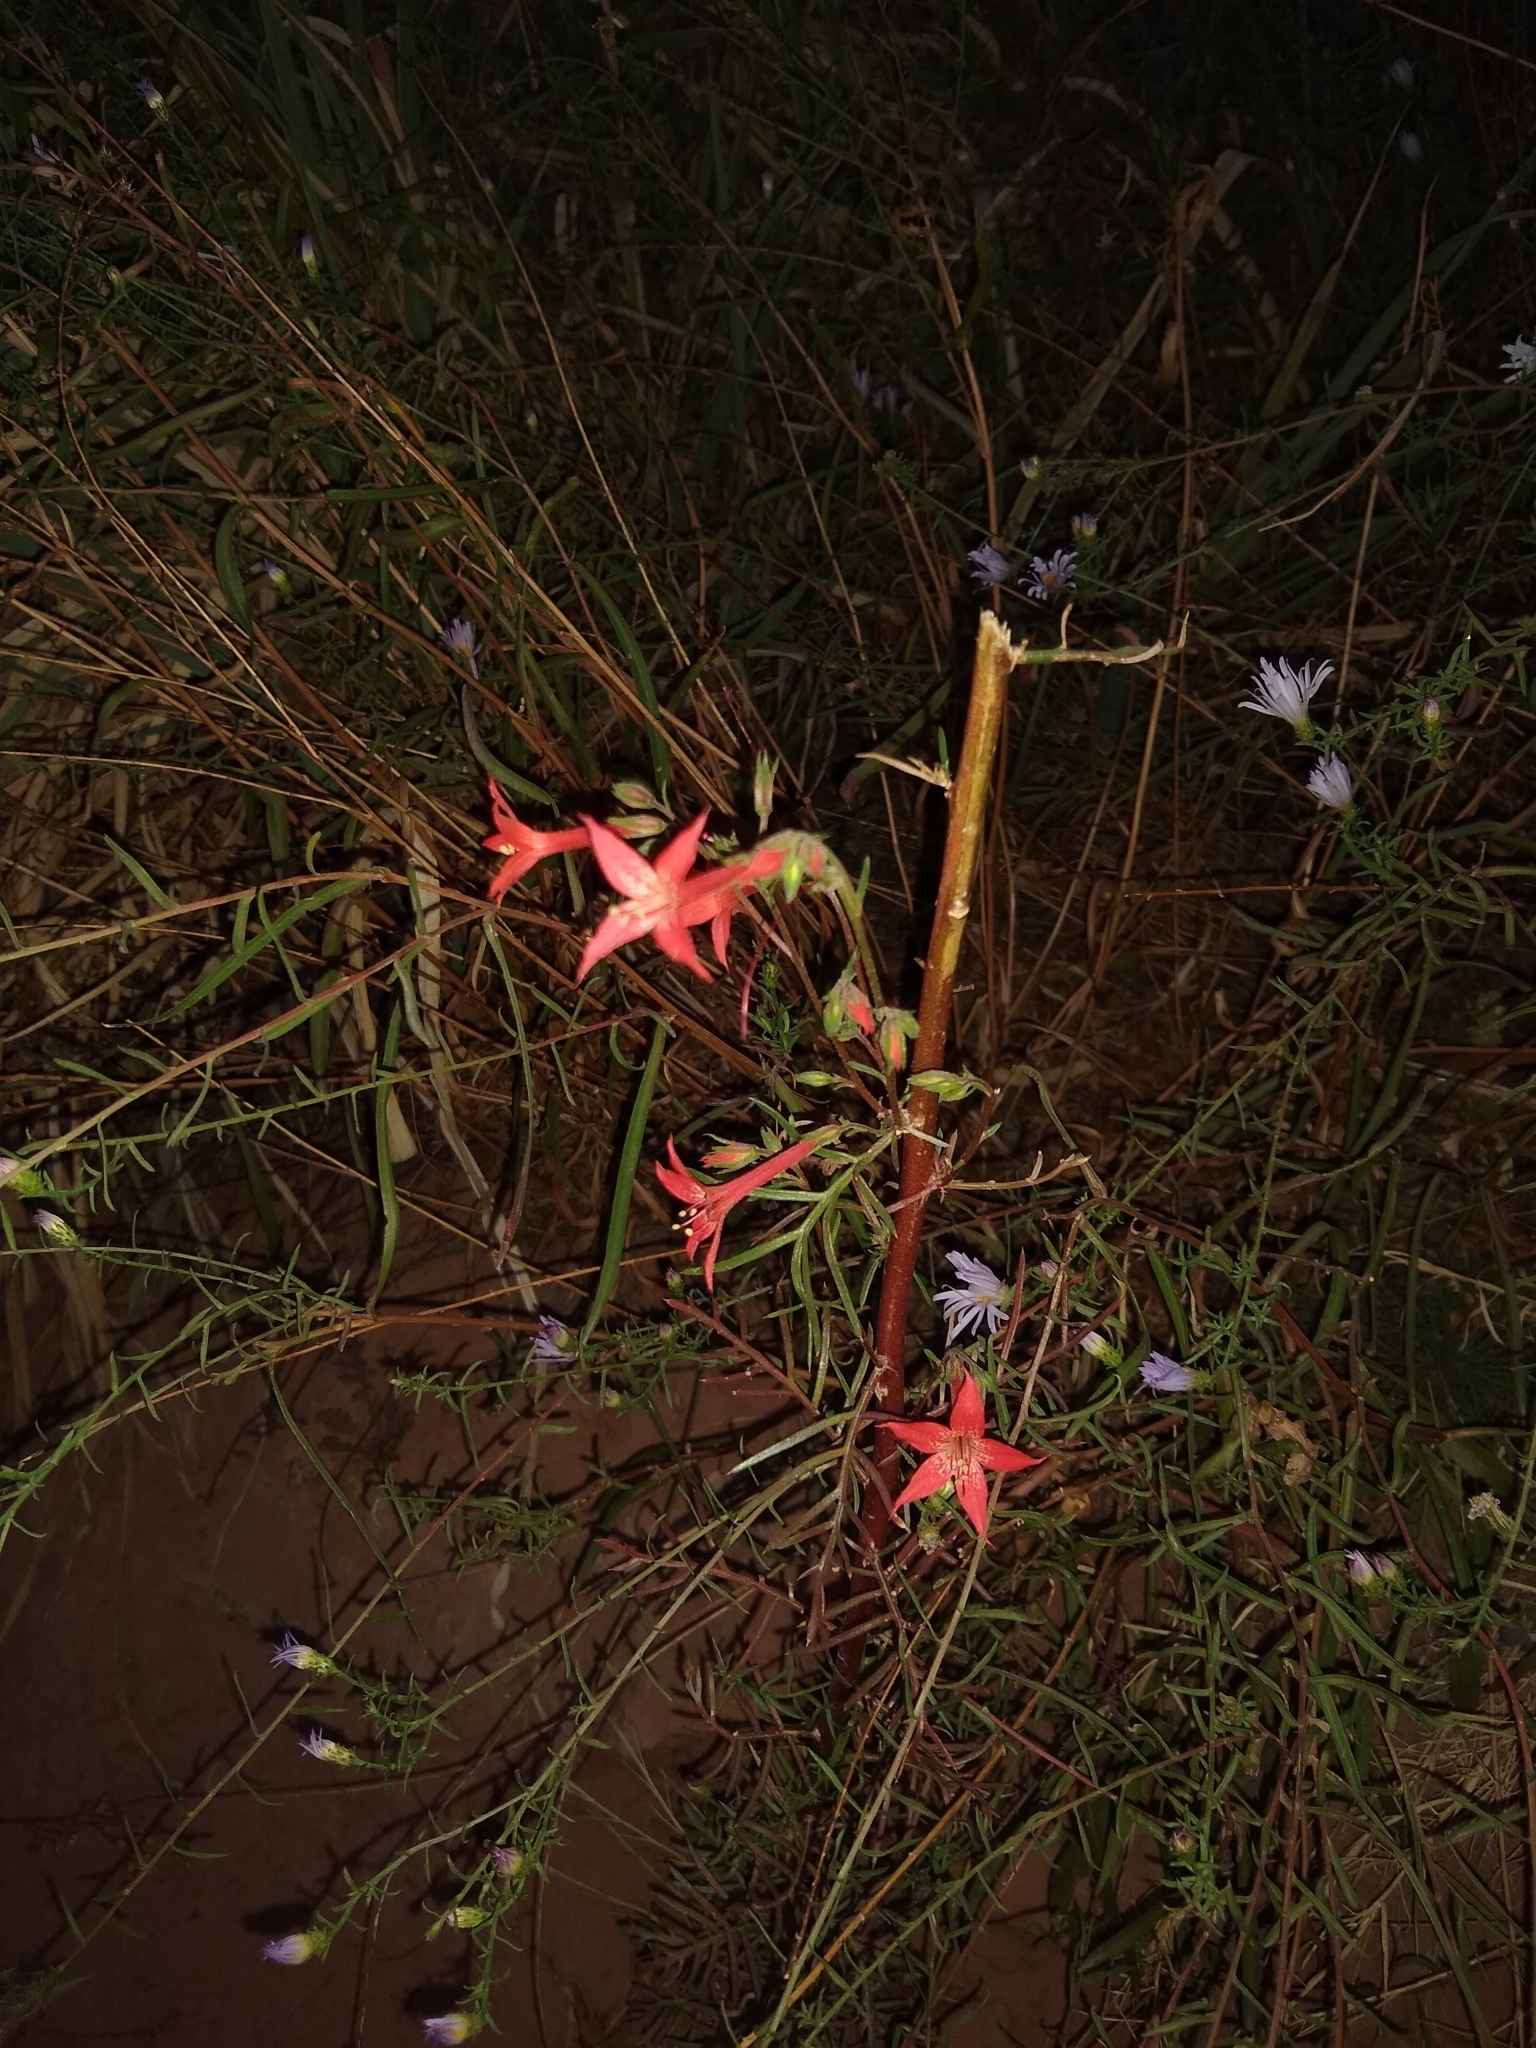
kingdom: Plantae
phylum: Tracheophyta
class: Magnoliopsida
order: Ericales
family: Polemoniaceae
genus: Ipomopsis
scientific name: Ipomopsis aggregata
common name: Scarlet gilia
